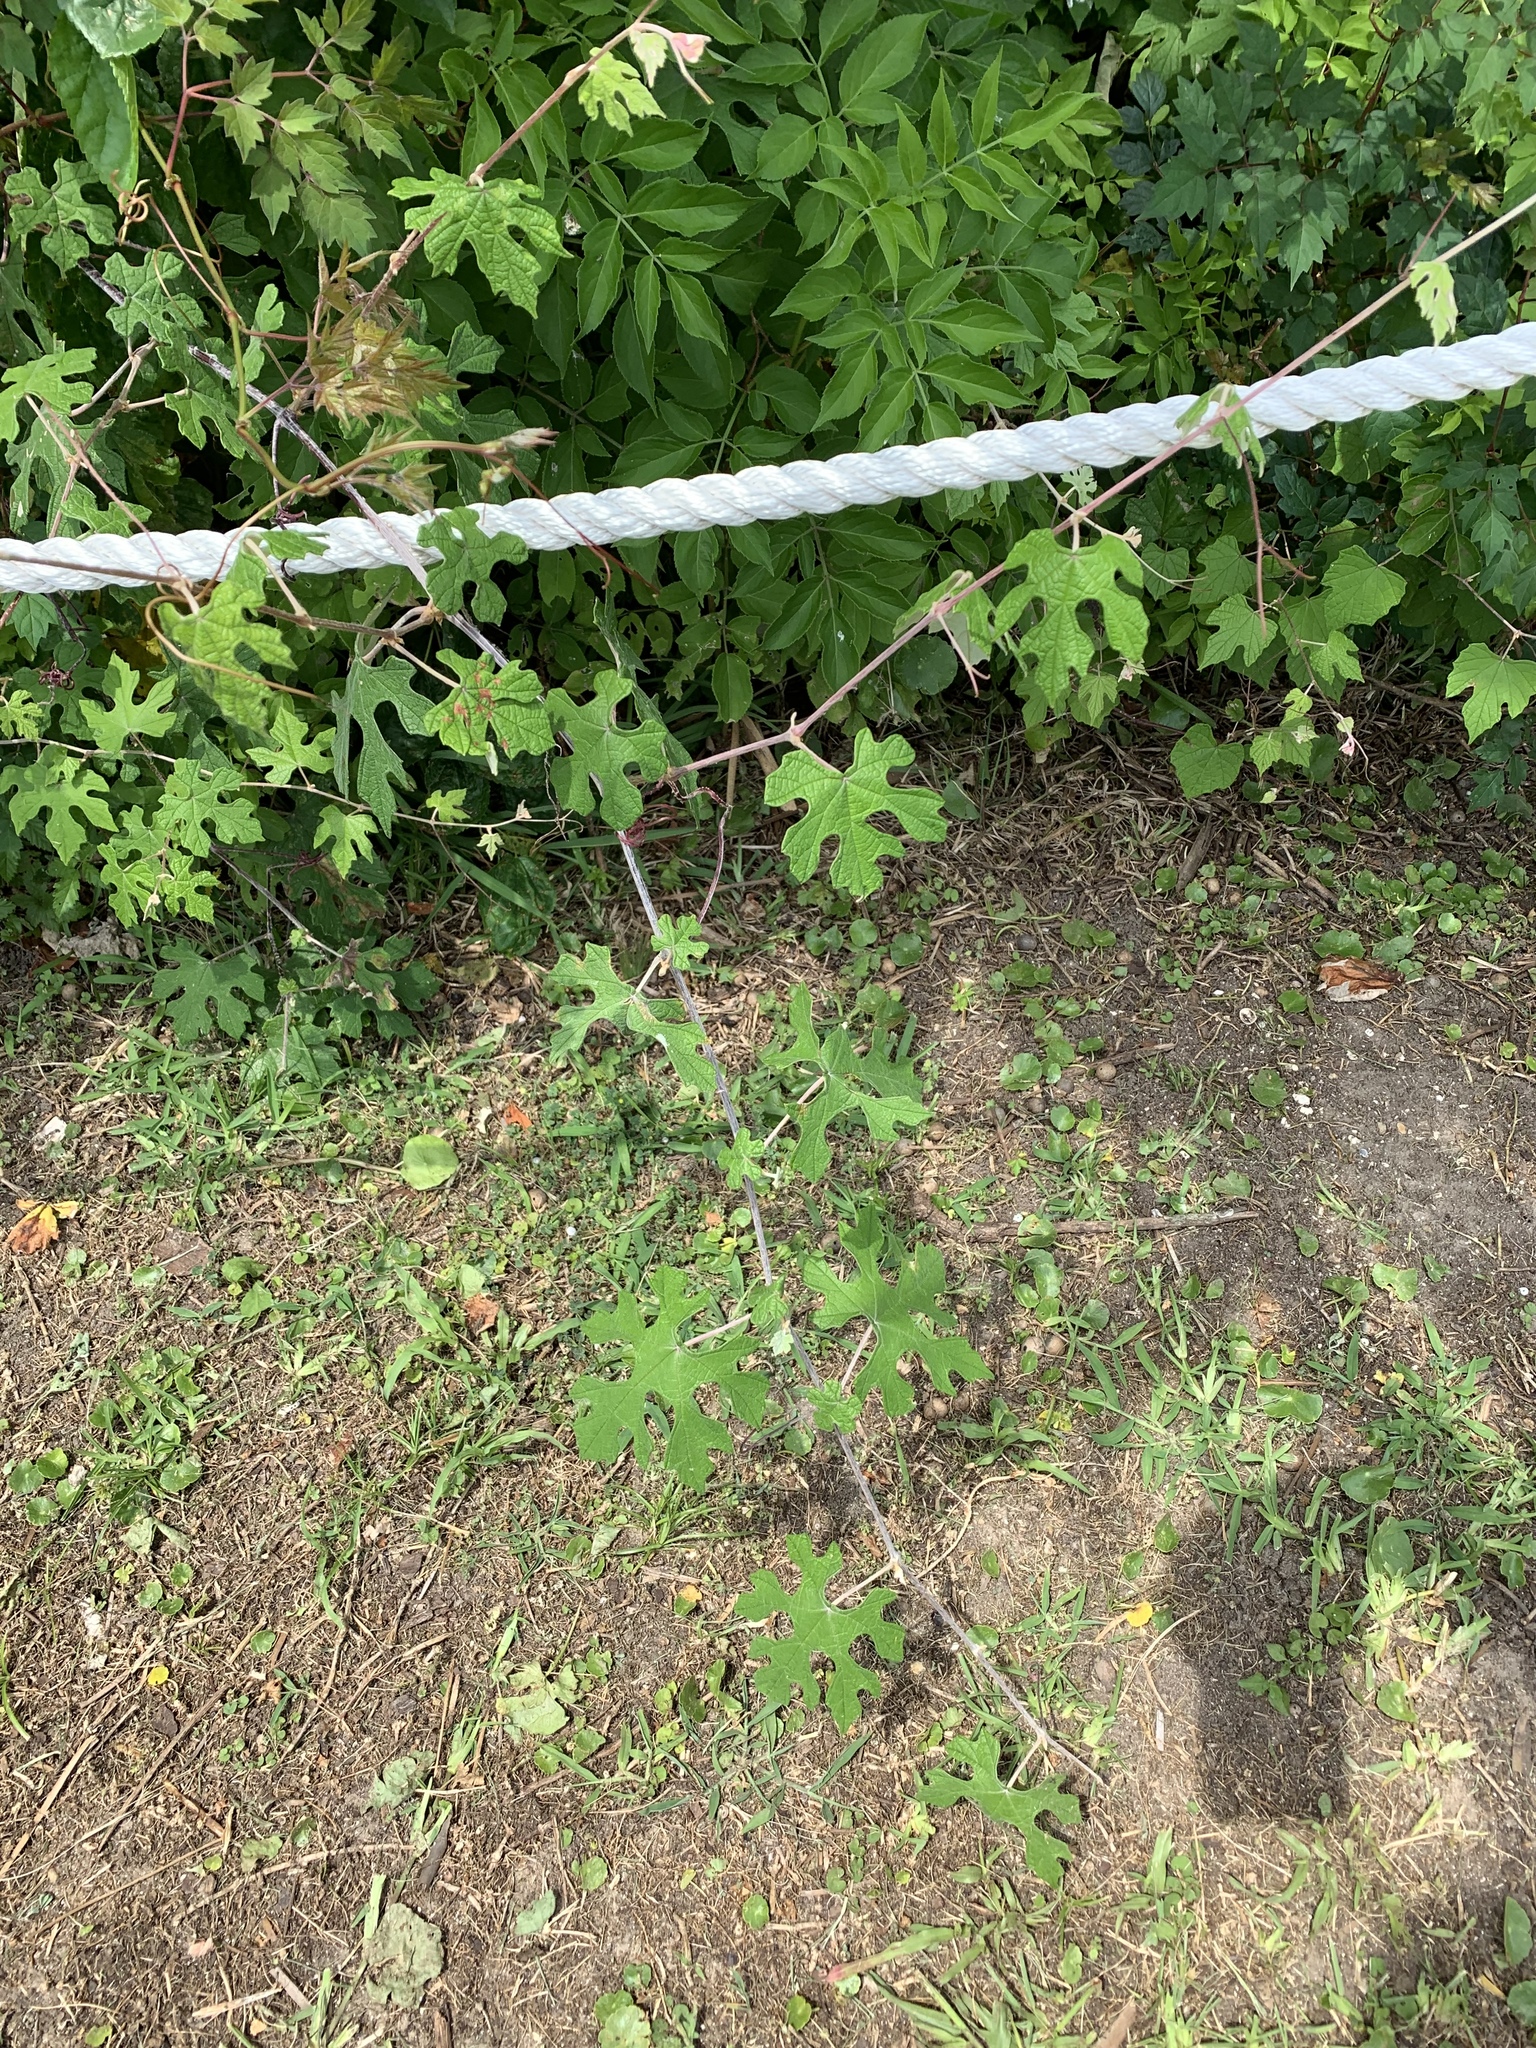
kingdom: Plantae
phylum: Tracheophyta
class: Magnoliopsida
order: Vitales
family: Vitaceae
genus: Vitis
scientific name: Vitis mustangensis
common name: Mustang grape
